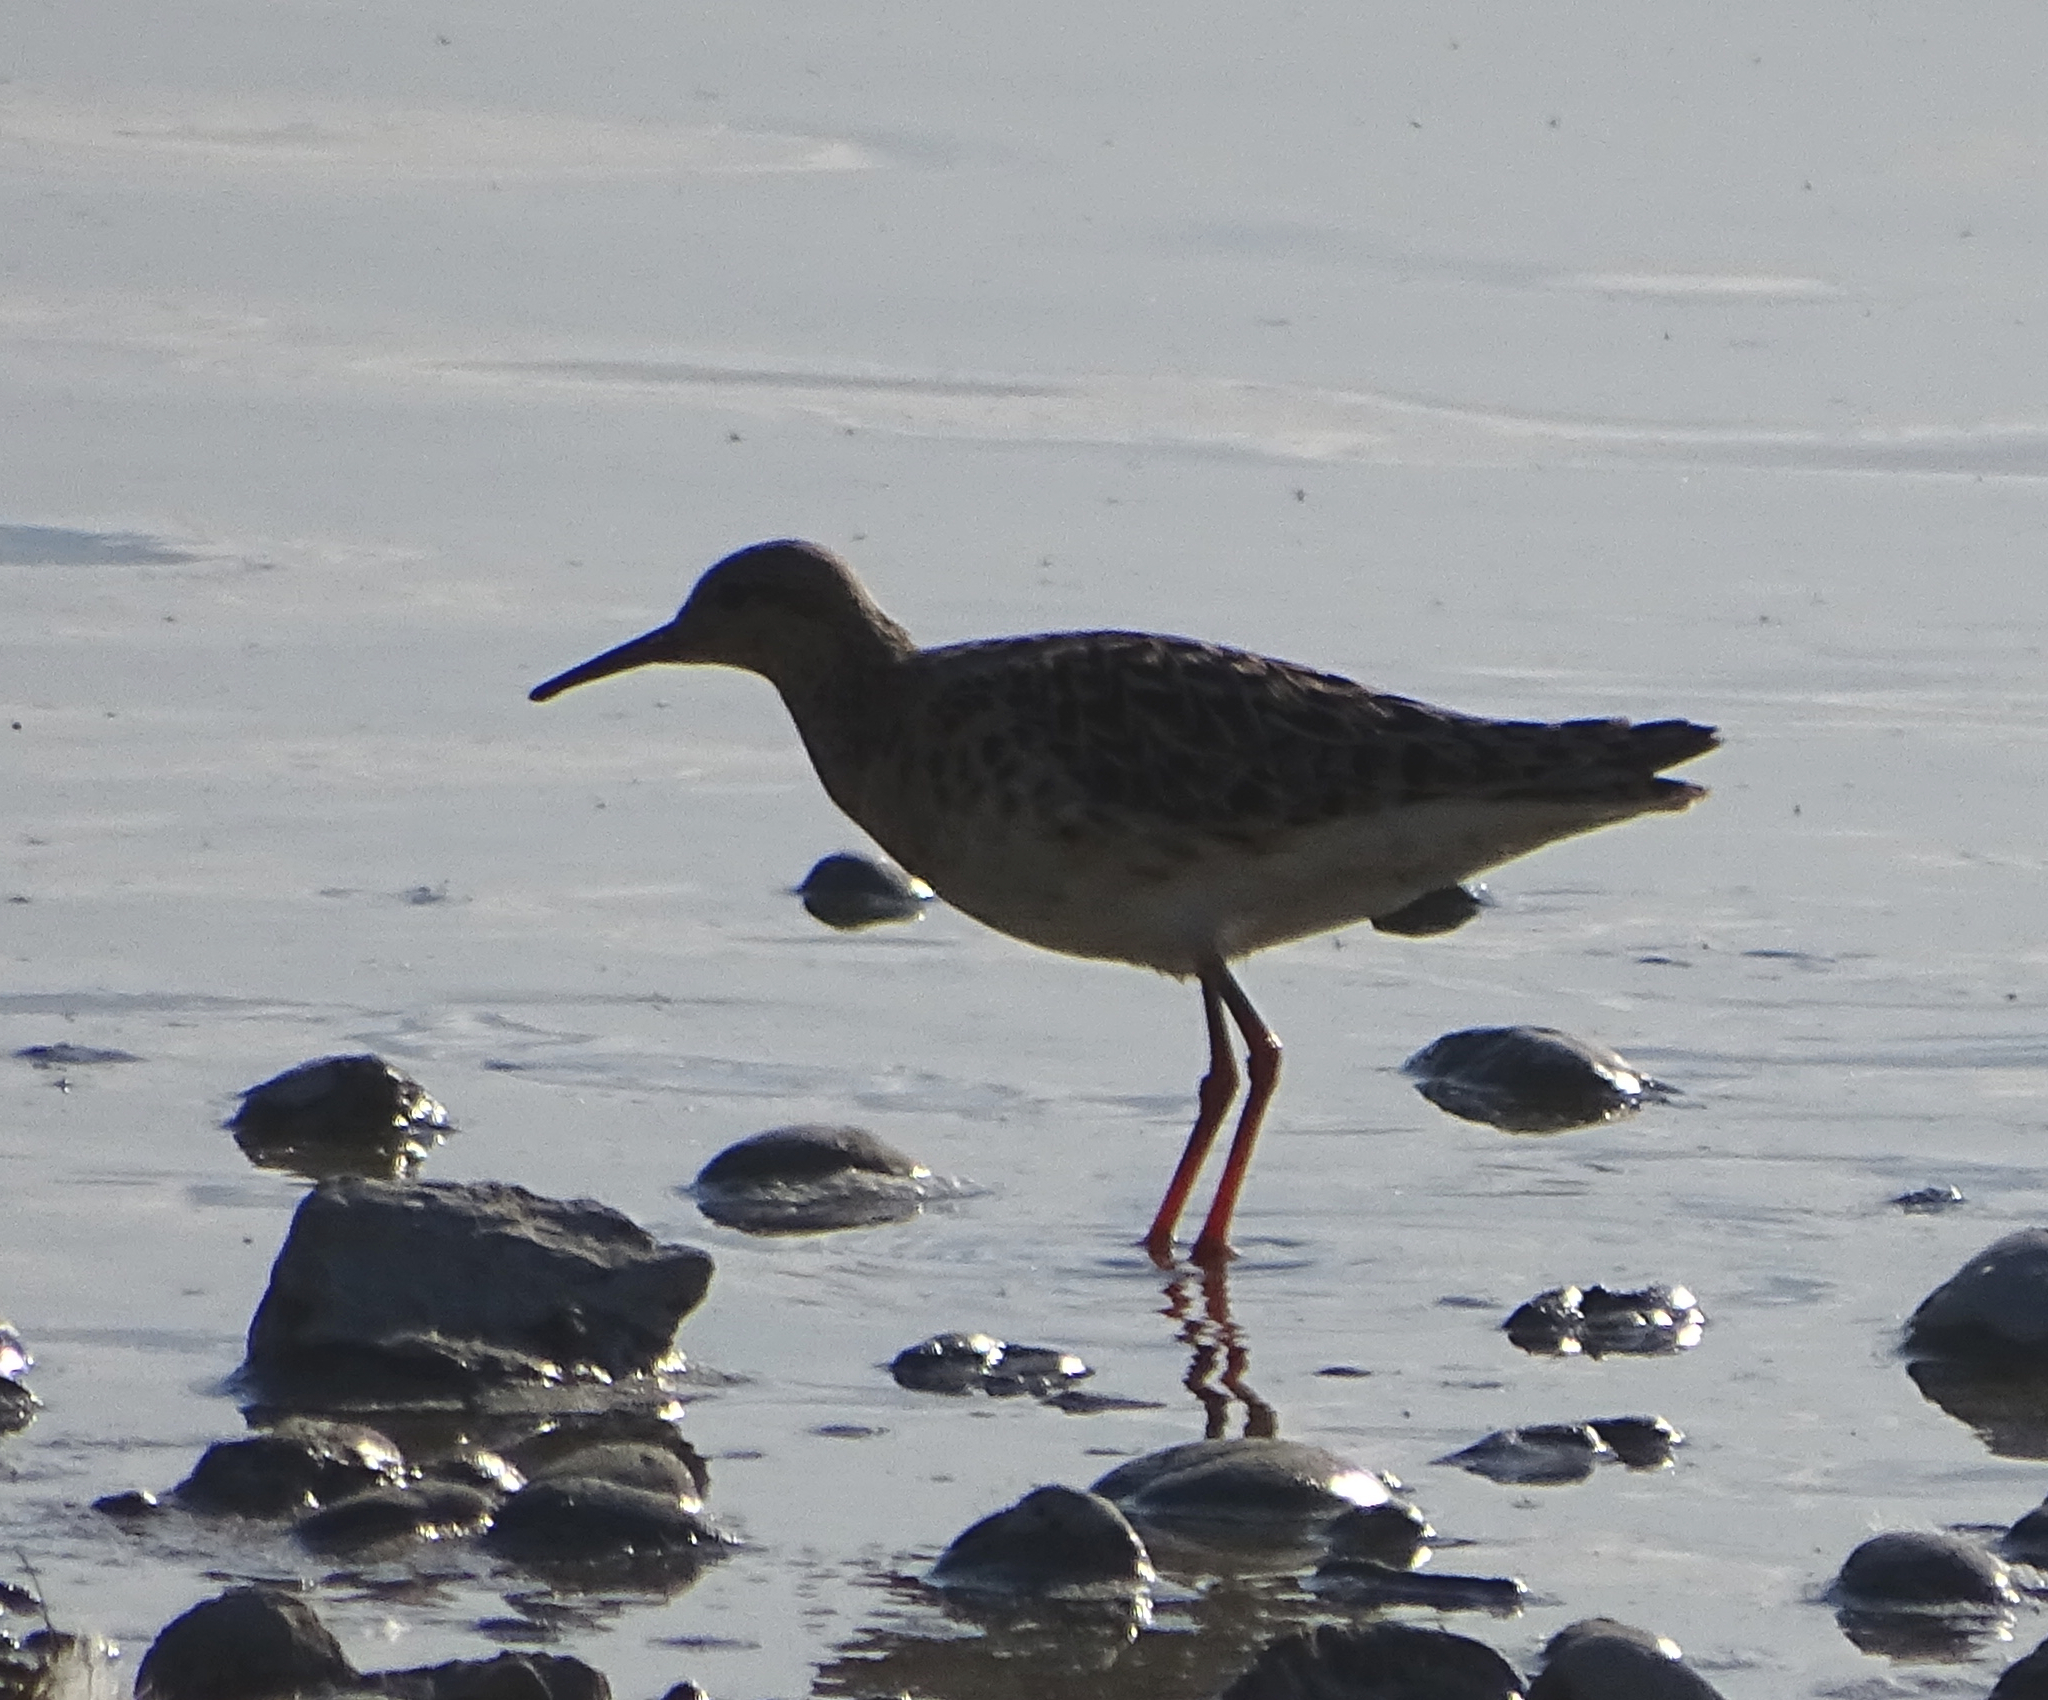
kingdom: Animalia
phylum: Chordata
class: Aves
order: Charadriiformes
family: Scolopacidae
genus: Calidris
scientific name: Calidris pugnax
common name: Ruff
